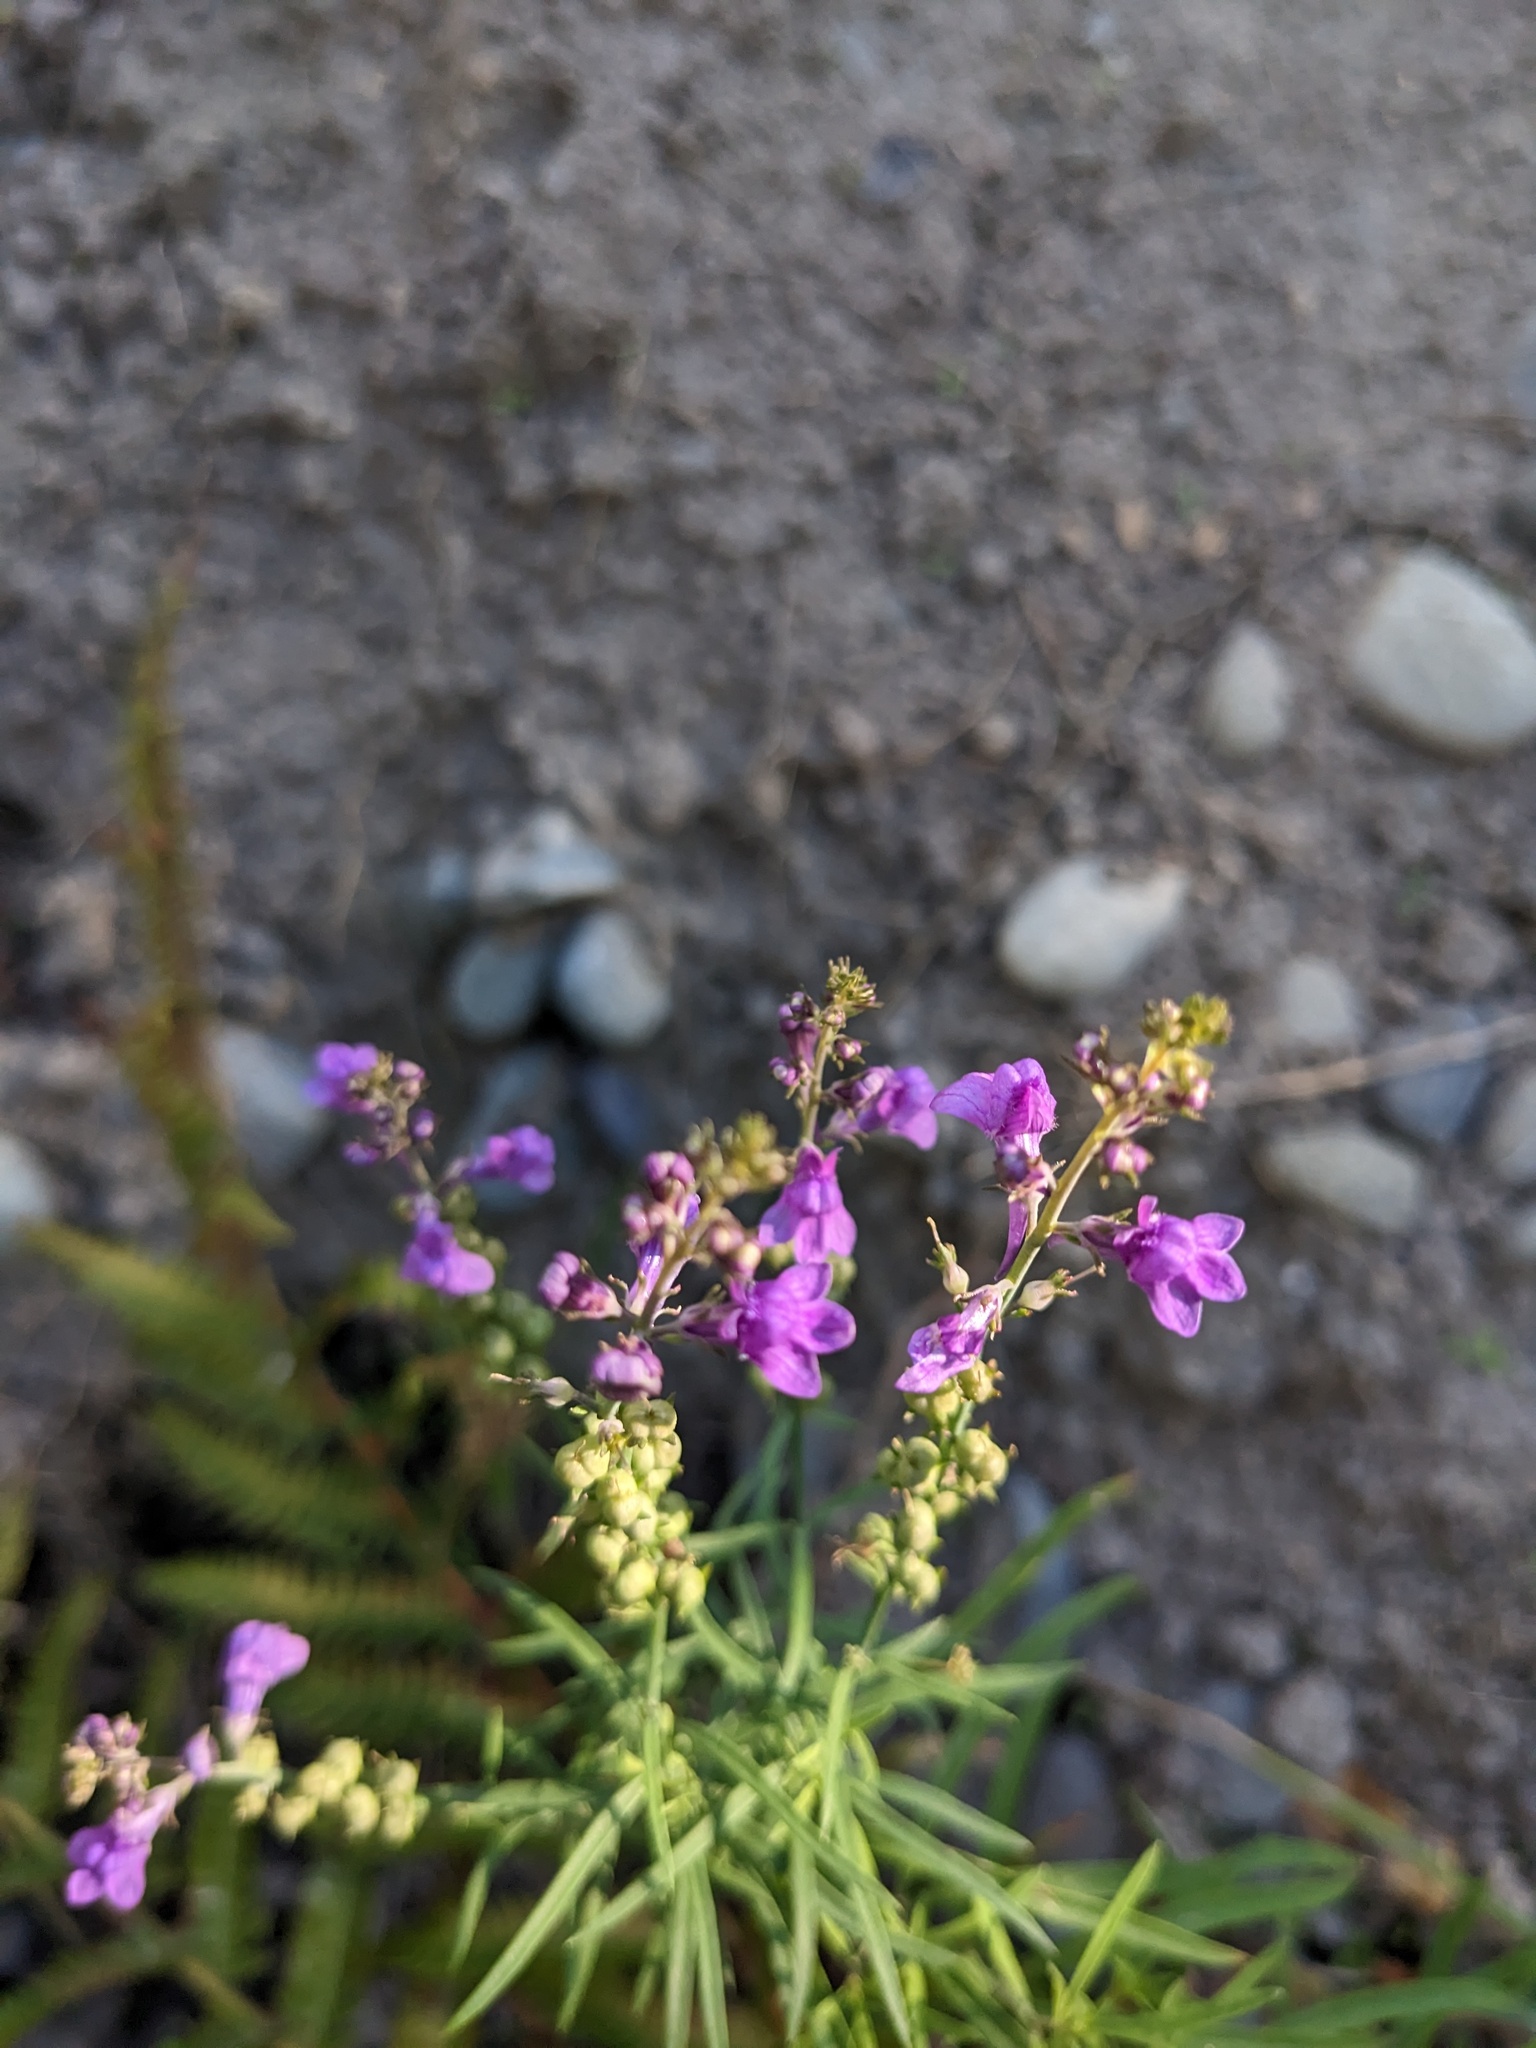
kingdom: Plantae
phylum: Tracheophyta
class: Magnoliopsida
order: Lamiales
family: Plantaginaceae
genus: Linaria
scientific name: Linaria purpurea
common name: Purple toadflax
